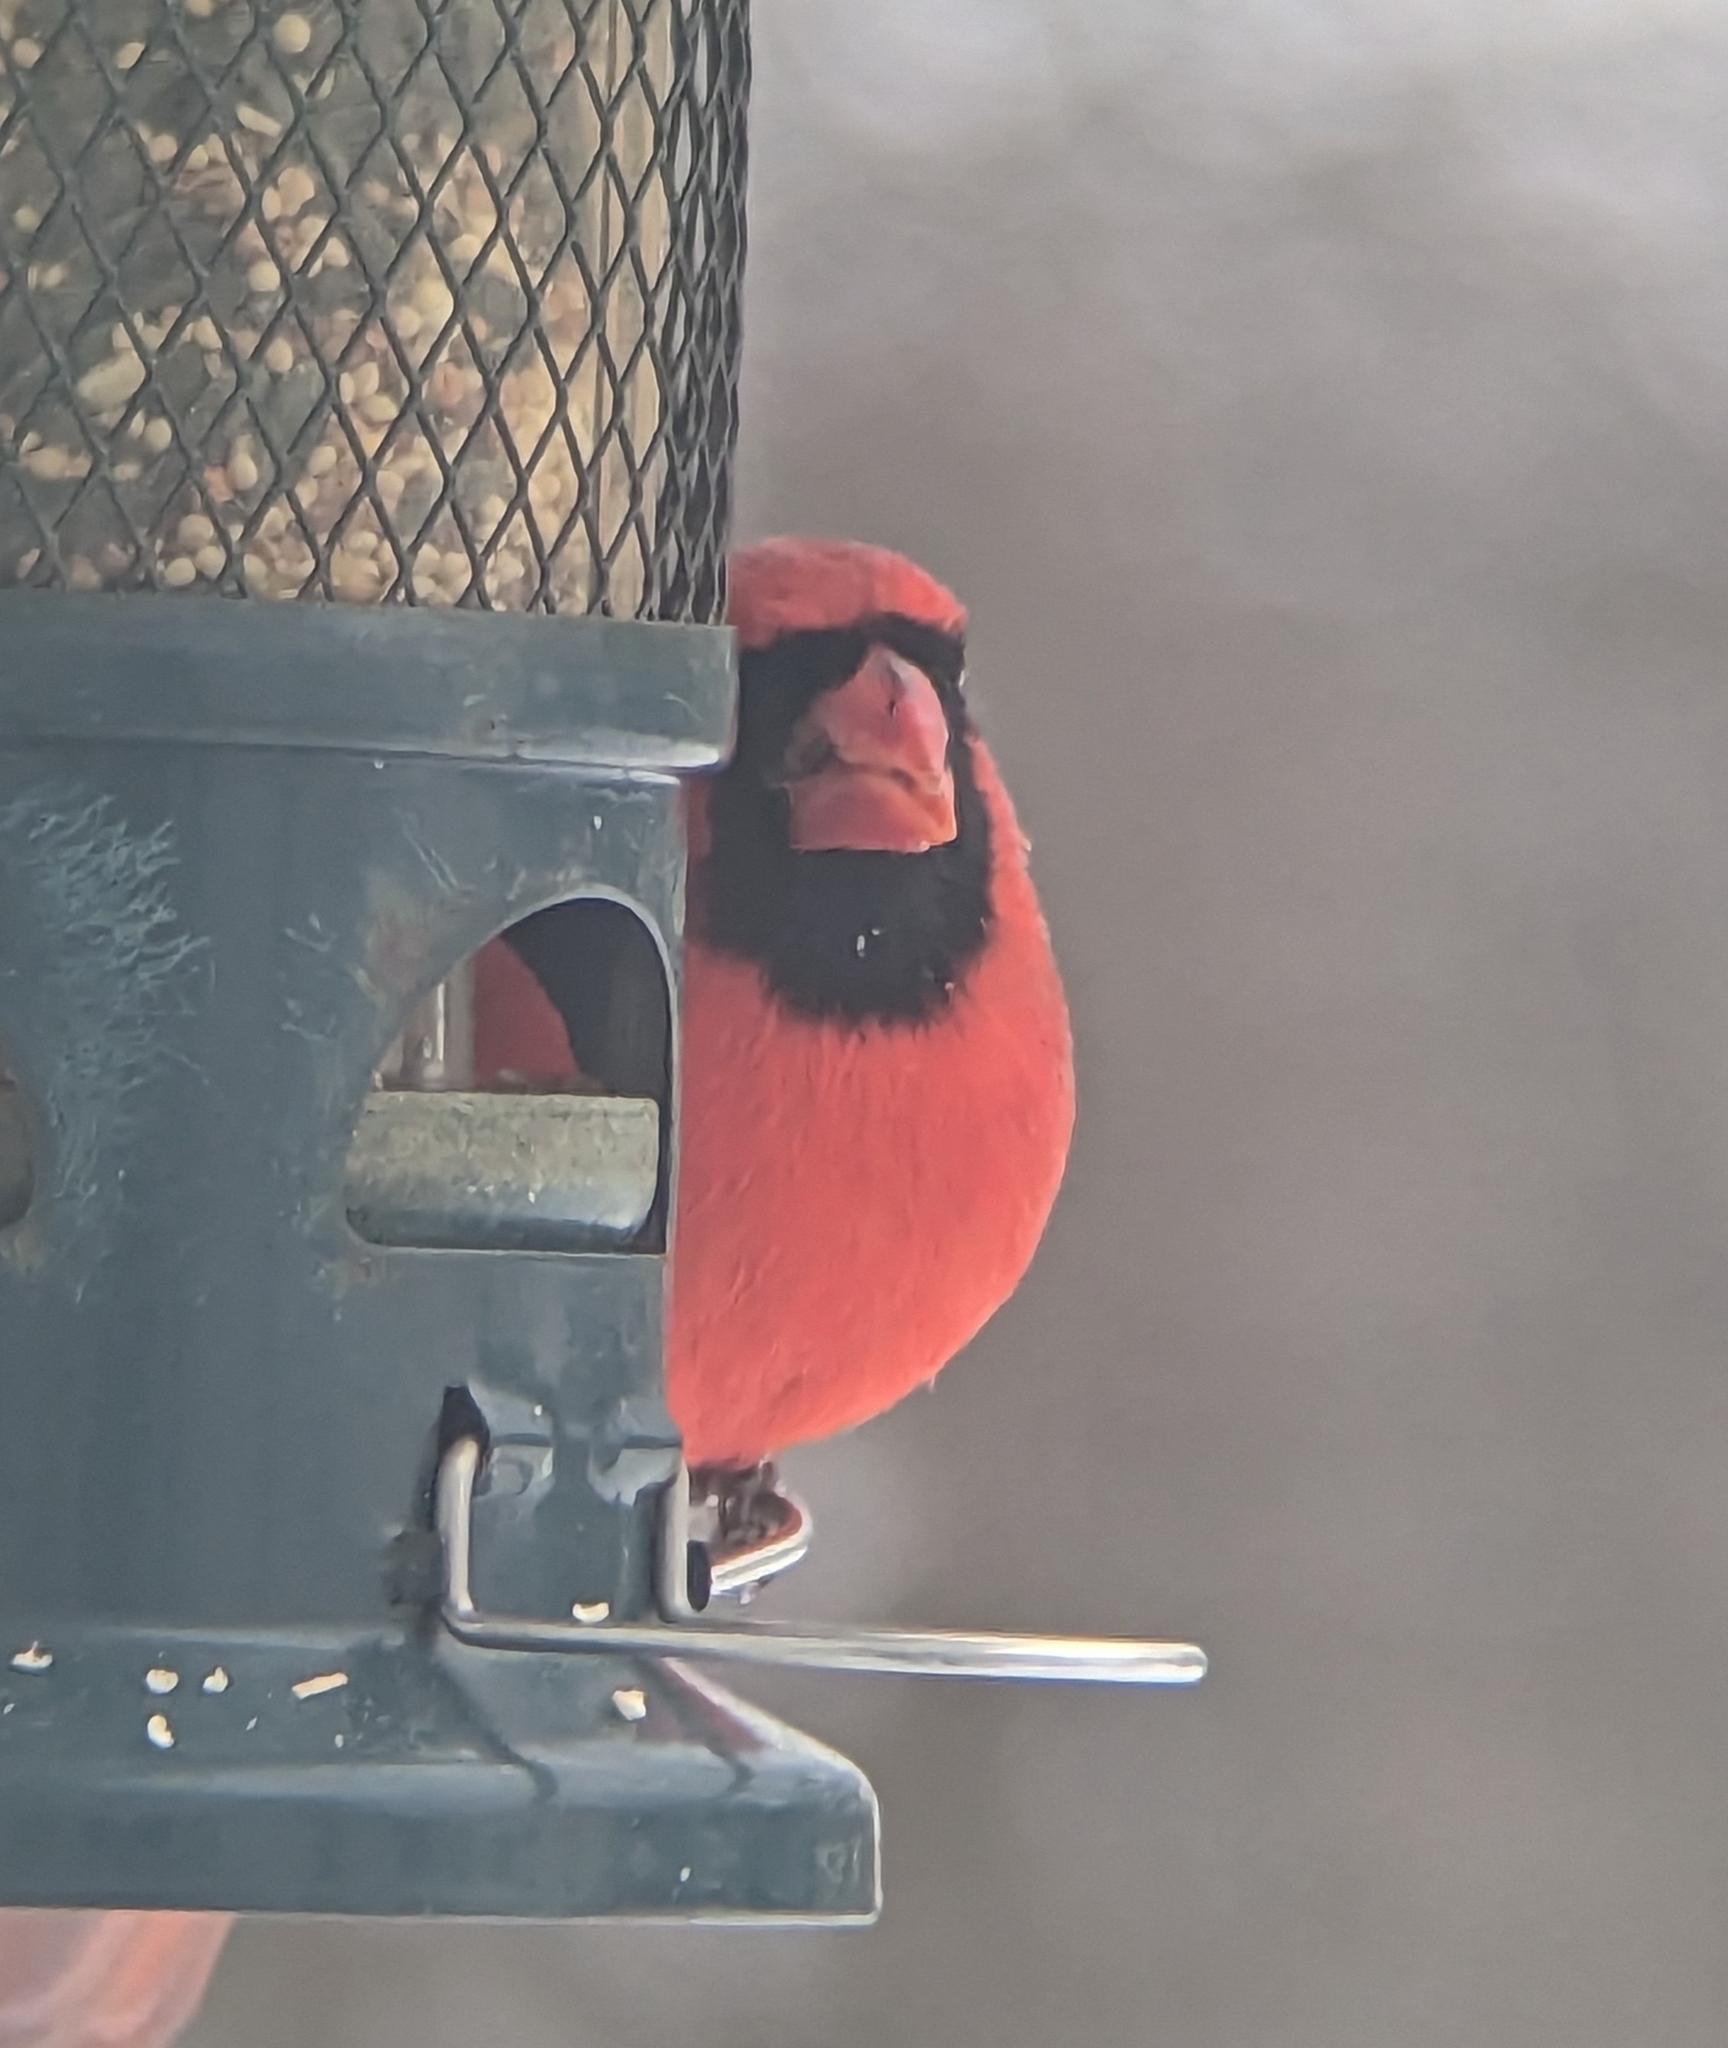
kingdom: Animalia
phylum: Chordata
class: Aves
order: Passeriformes
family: Cardinalidae
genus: Cardinalis
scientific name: Cardinalis cardinalis
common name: Northern cardinal
